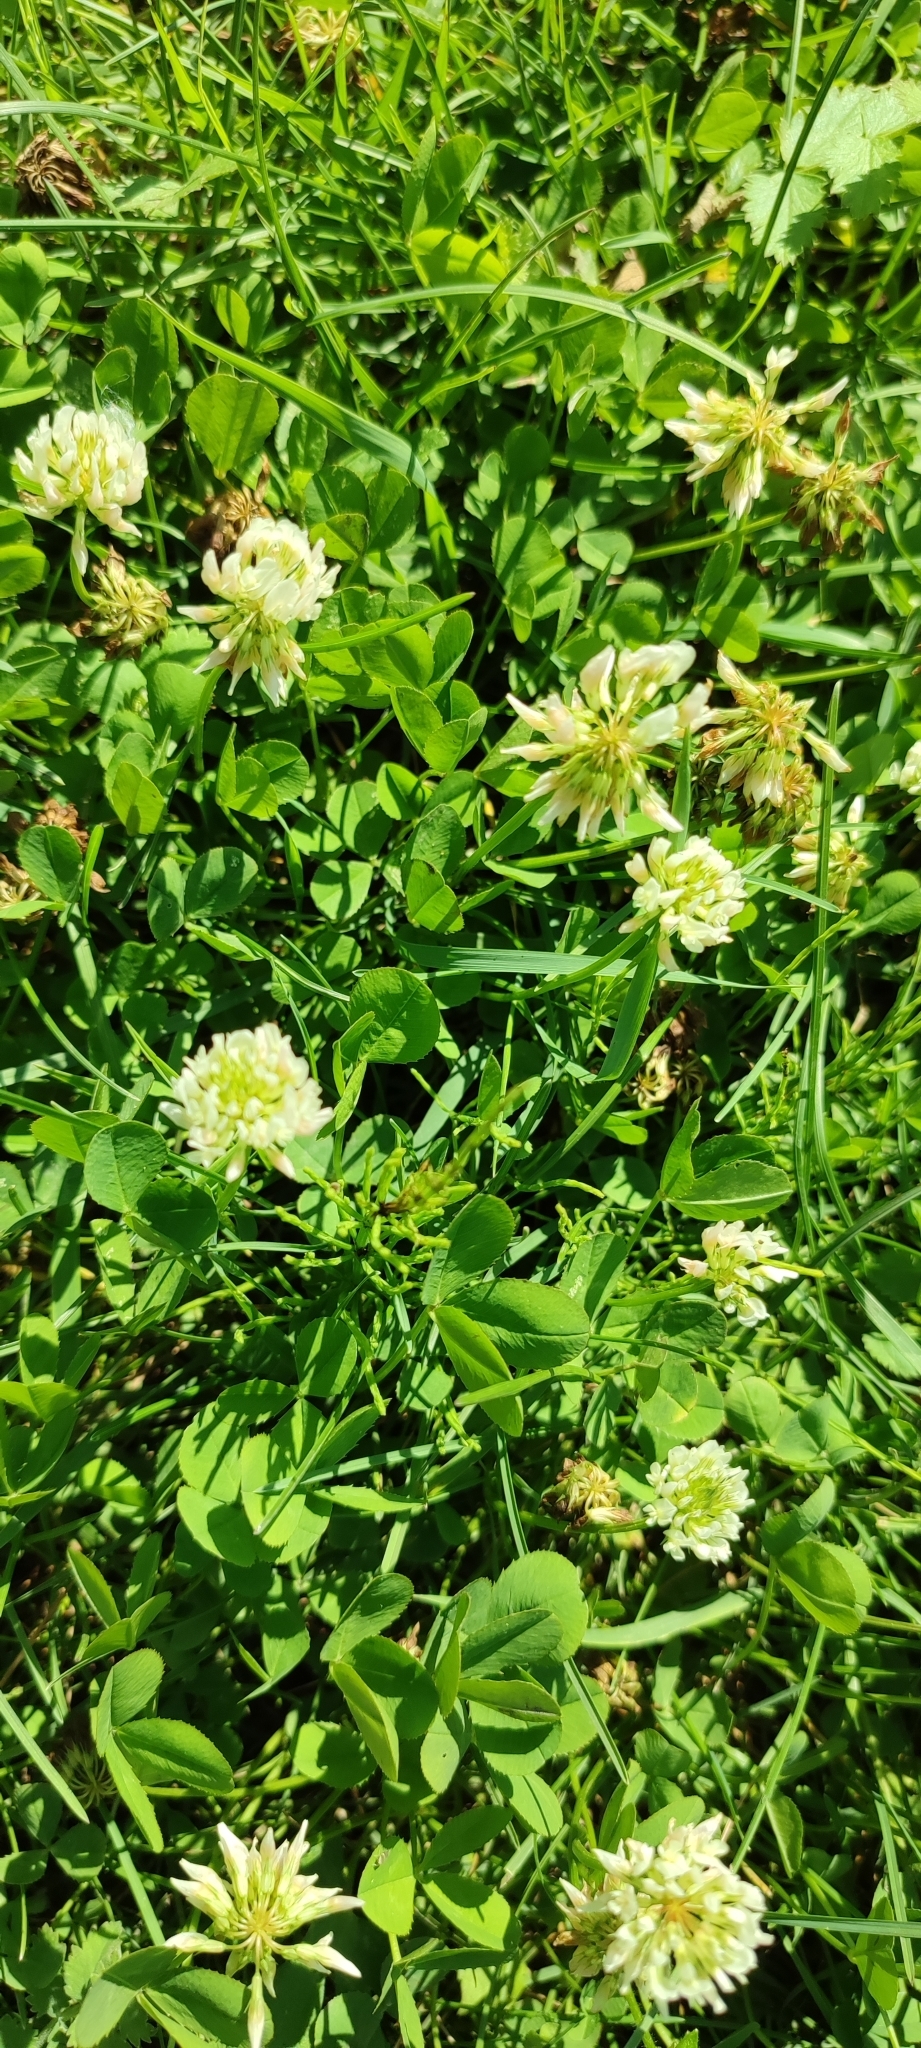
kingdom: Plantae
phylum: Tracheophyta
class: Magnoliopsida
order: Fabales
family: Fabaceae
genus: Trifolium
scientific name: Trifolium repens
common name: White clover
